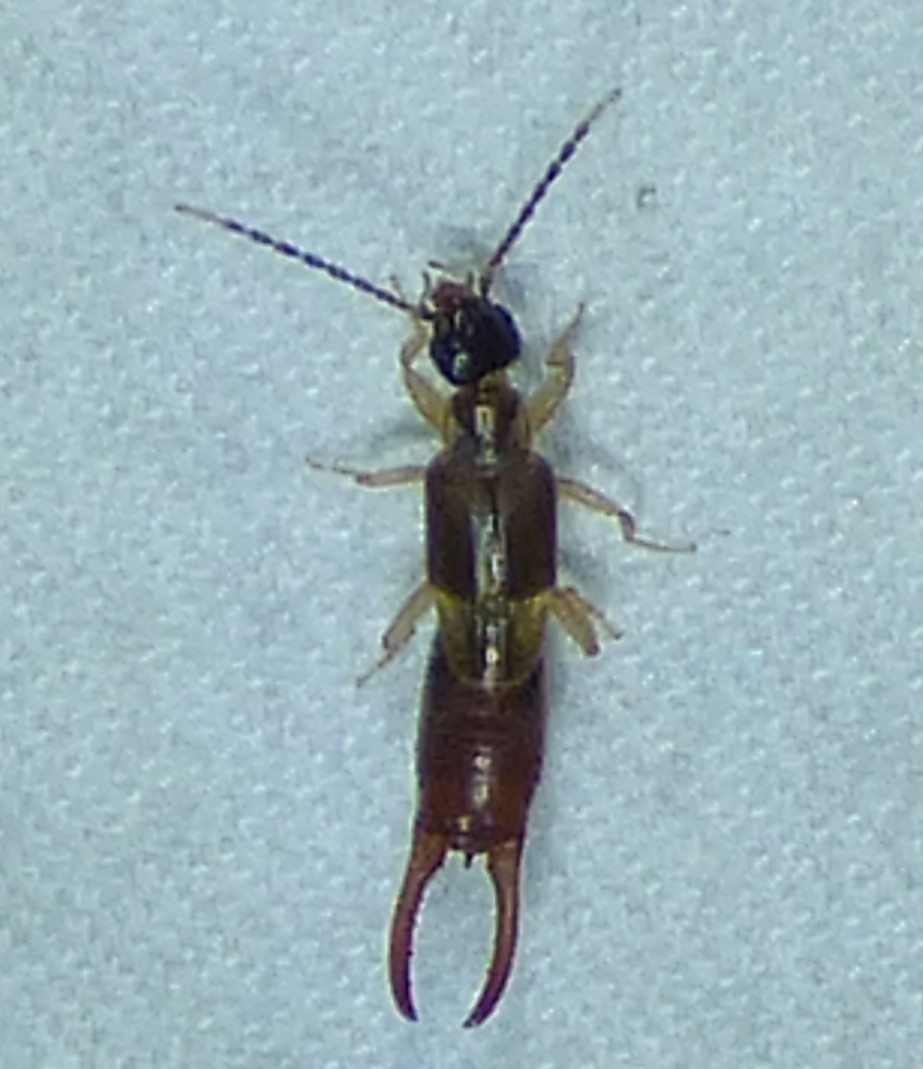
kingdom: Animalia
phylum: Arthropoda
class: Insecta
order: Dermaptera
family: Spongiphoridae
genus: Labia
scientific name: Labia minor
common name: Lesser earwig
